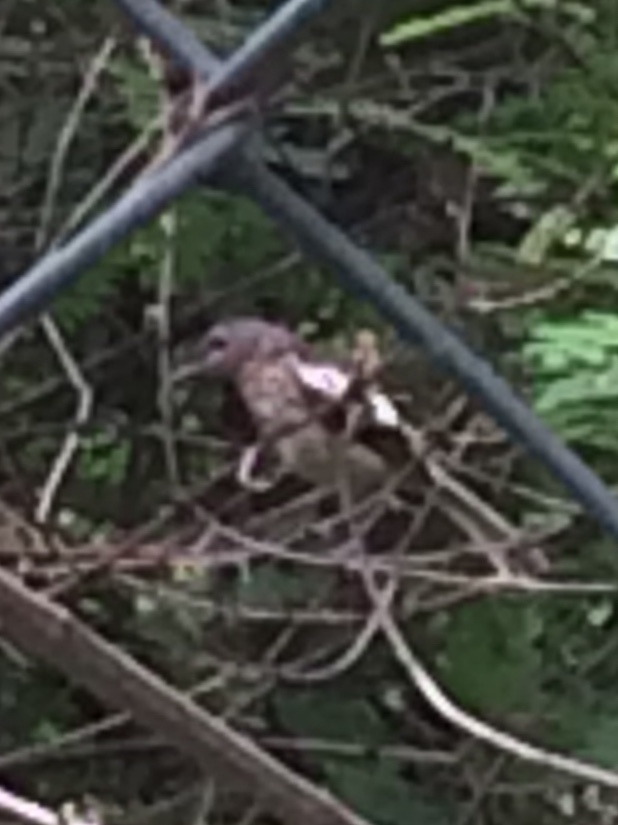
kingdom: Animalia
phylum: Chordata
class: Aves
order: Passeriformes
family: Muscicapidae
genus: Copsychus
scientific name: Copsychus saularis
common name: Oriental magpie-robin
